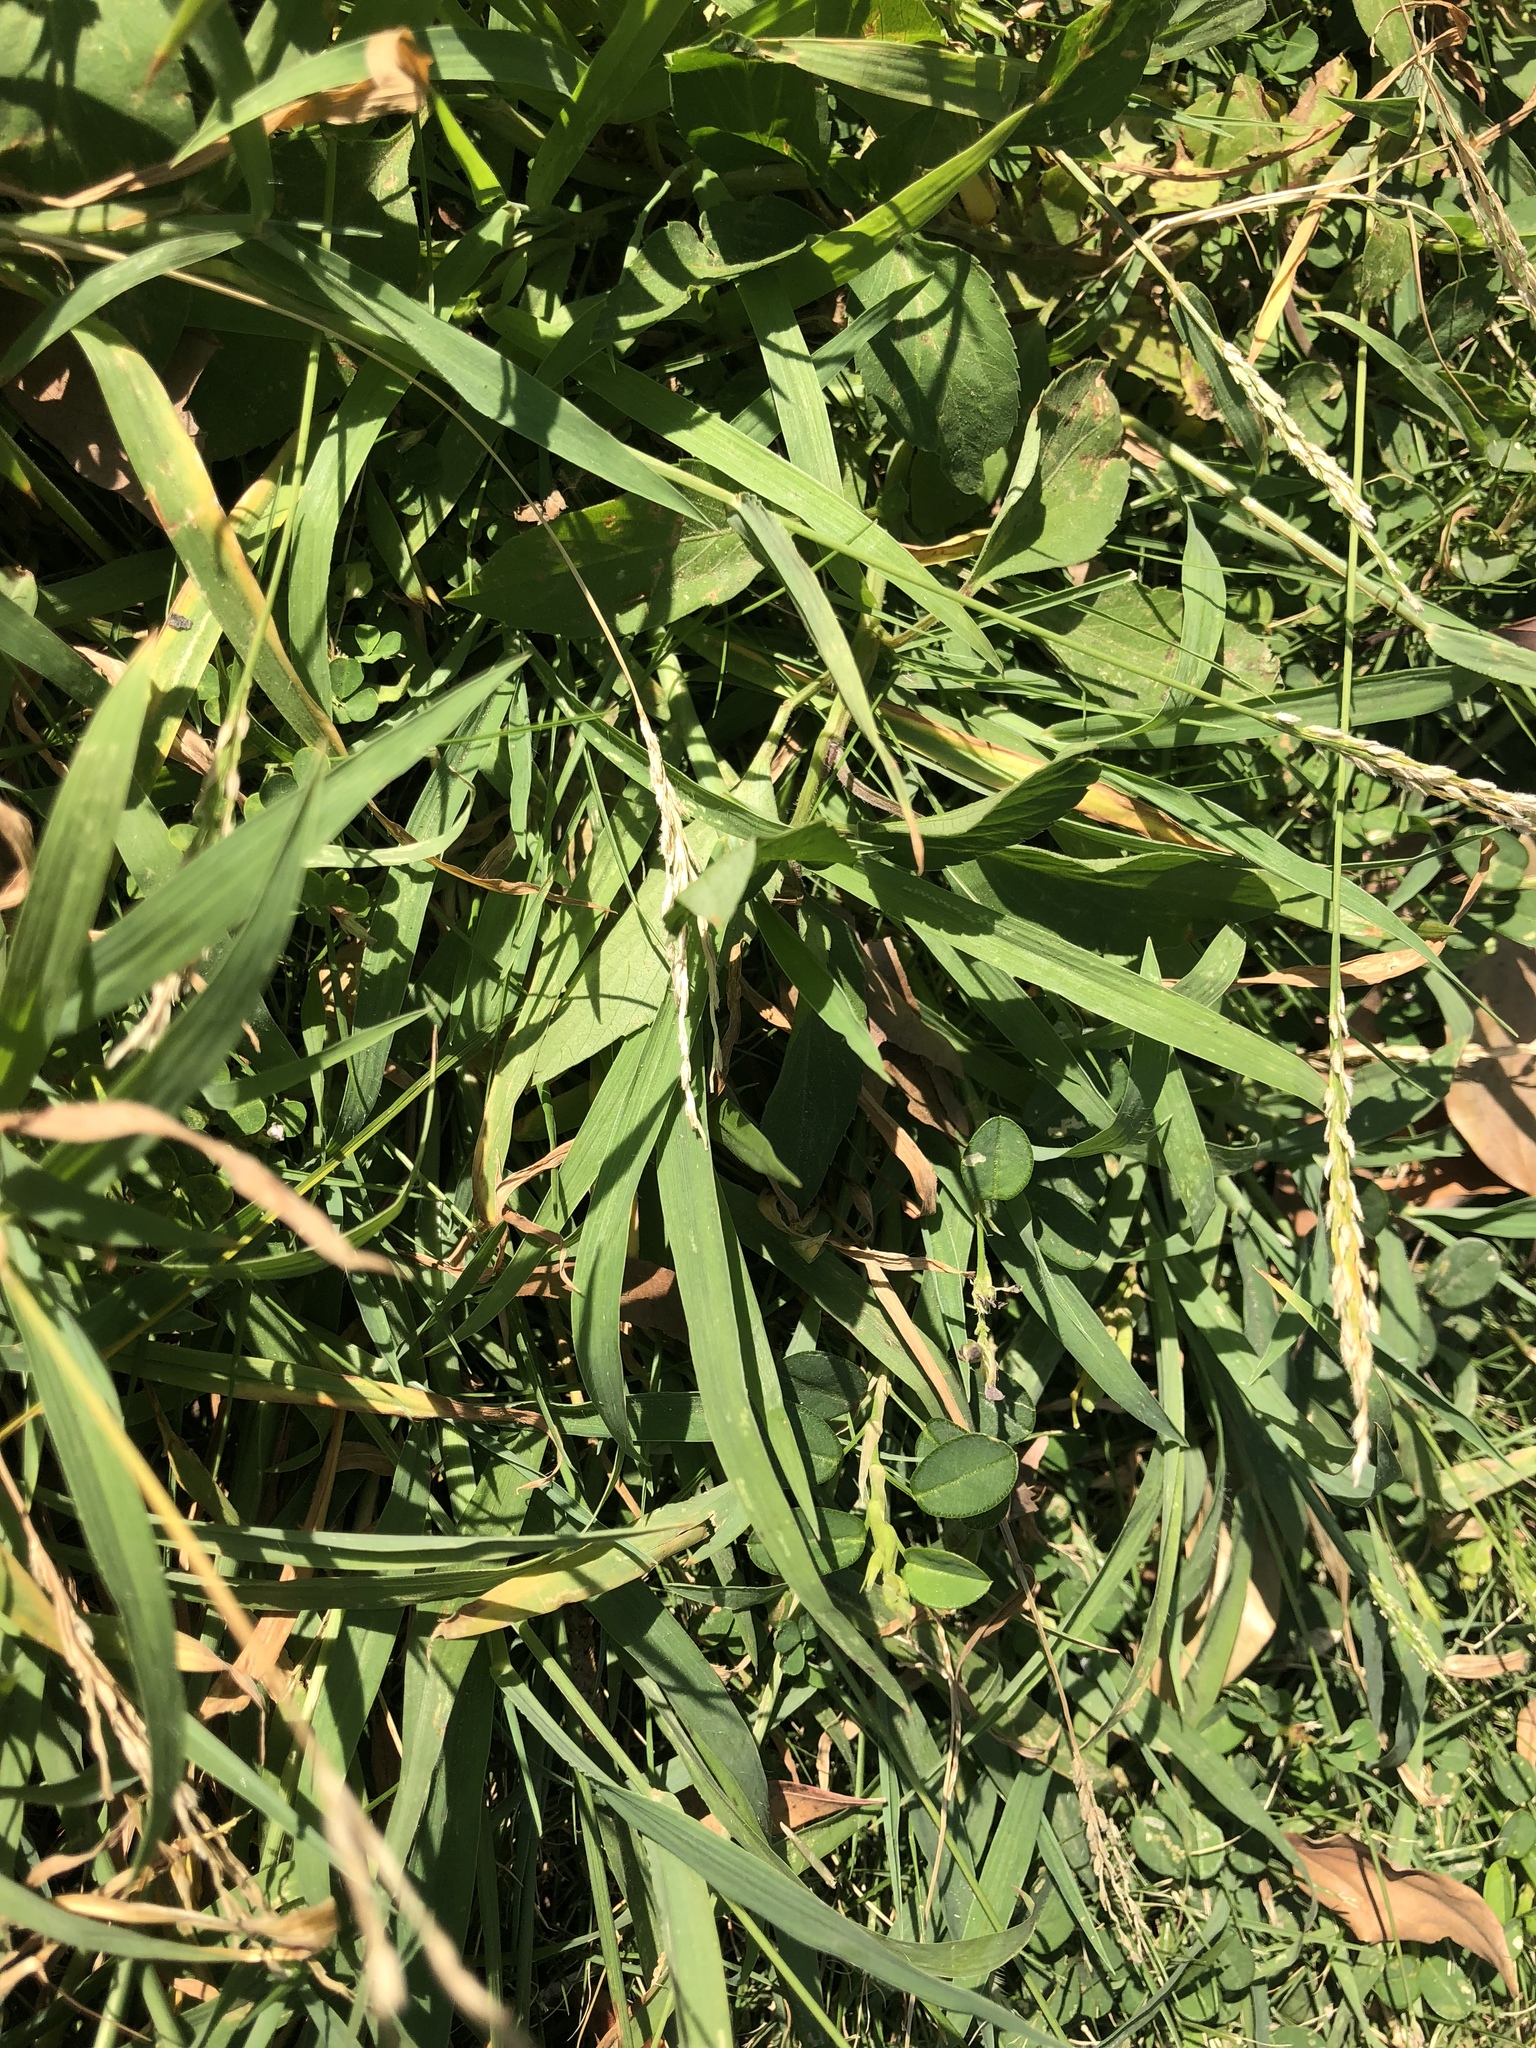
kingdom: Plantae
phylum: Tracheophyta
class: Liliopsida
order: Poales
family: Poaceae
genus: Digitaria
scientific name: Digitaria ciliaris
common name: Tropical finger-grass
